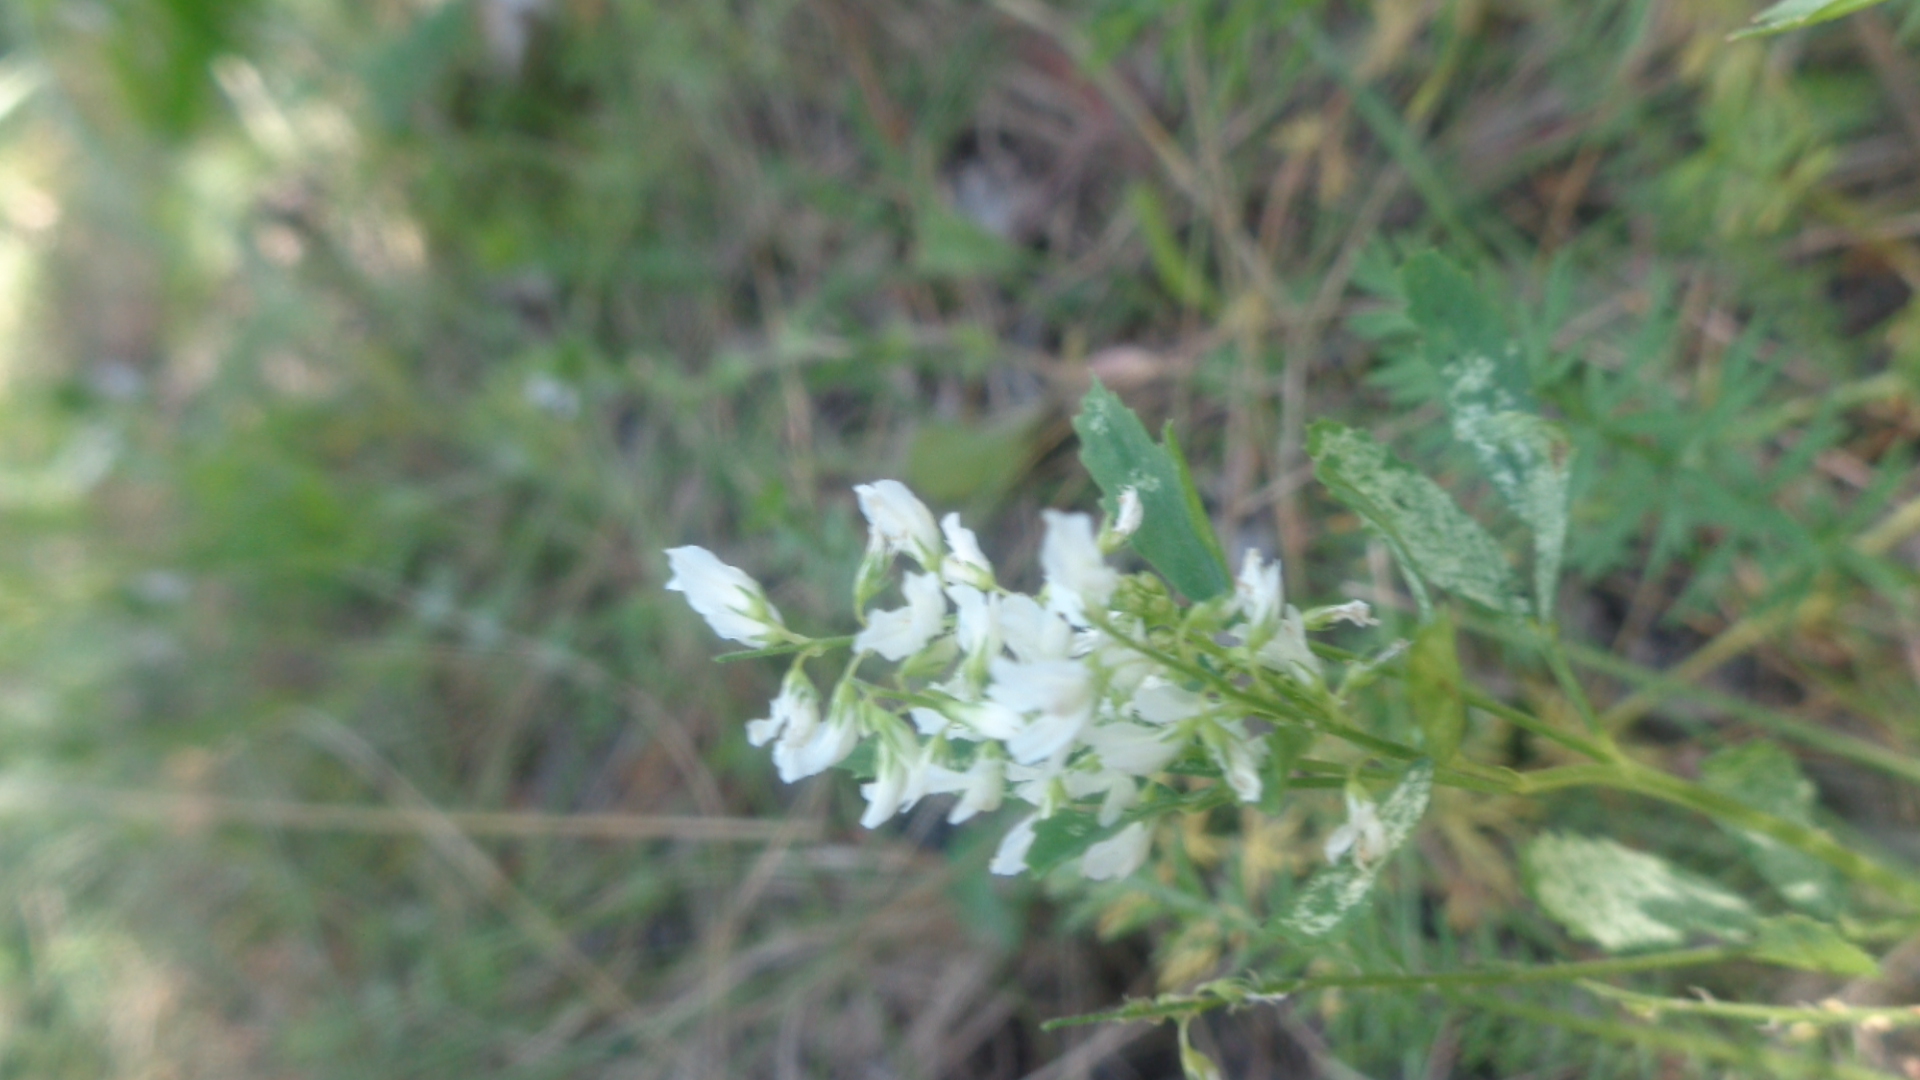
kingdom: Plantae
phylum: Tracheophyta
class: Magnoliopsida
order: Fabales
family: Fabaceae
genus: Melilotus
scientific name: Melilotus albus
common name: White melilot
